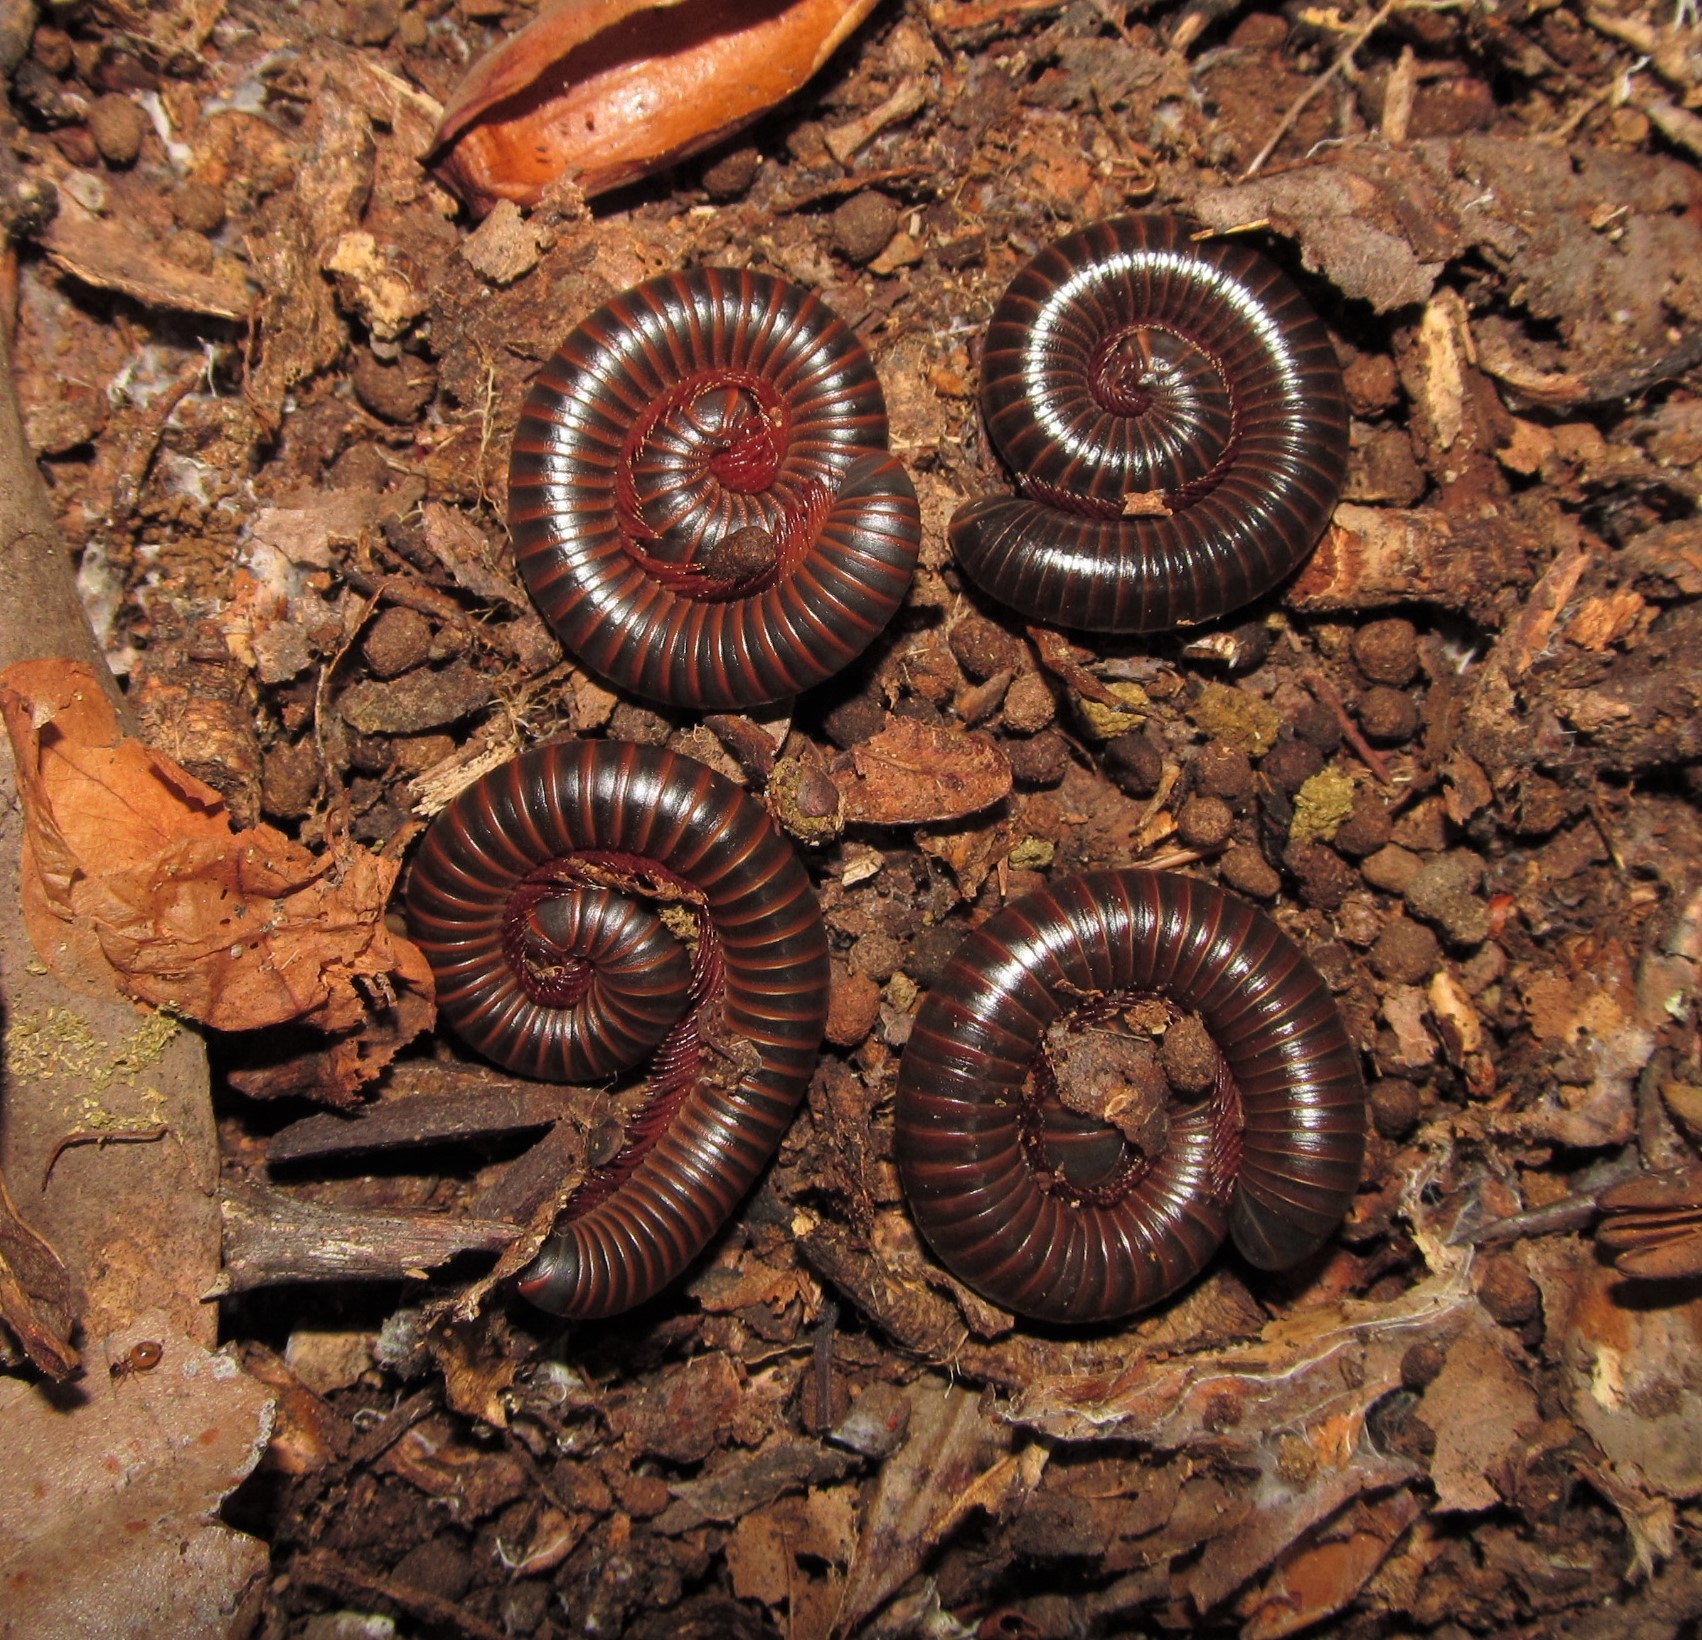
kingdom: Animalia
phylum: Arthropoda
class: Diplopoda
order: Spirobolida
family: Spirobolidae
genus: Narceus
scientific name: Narceus
